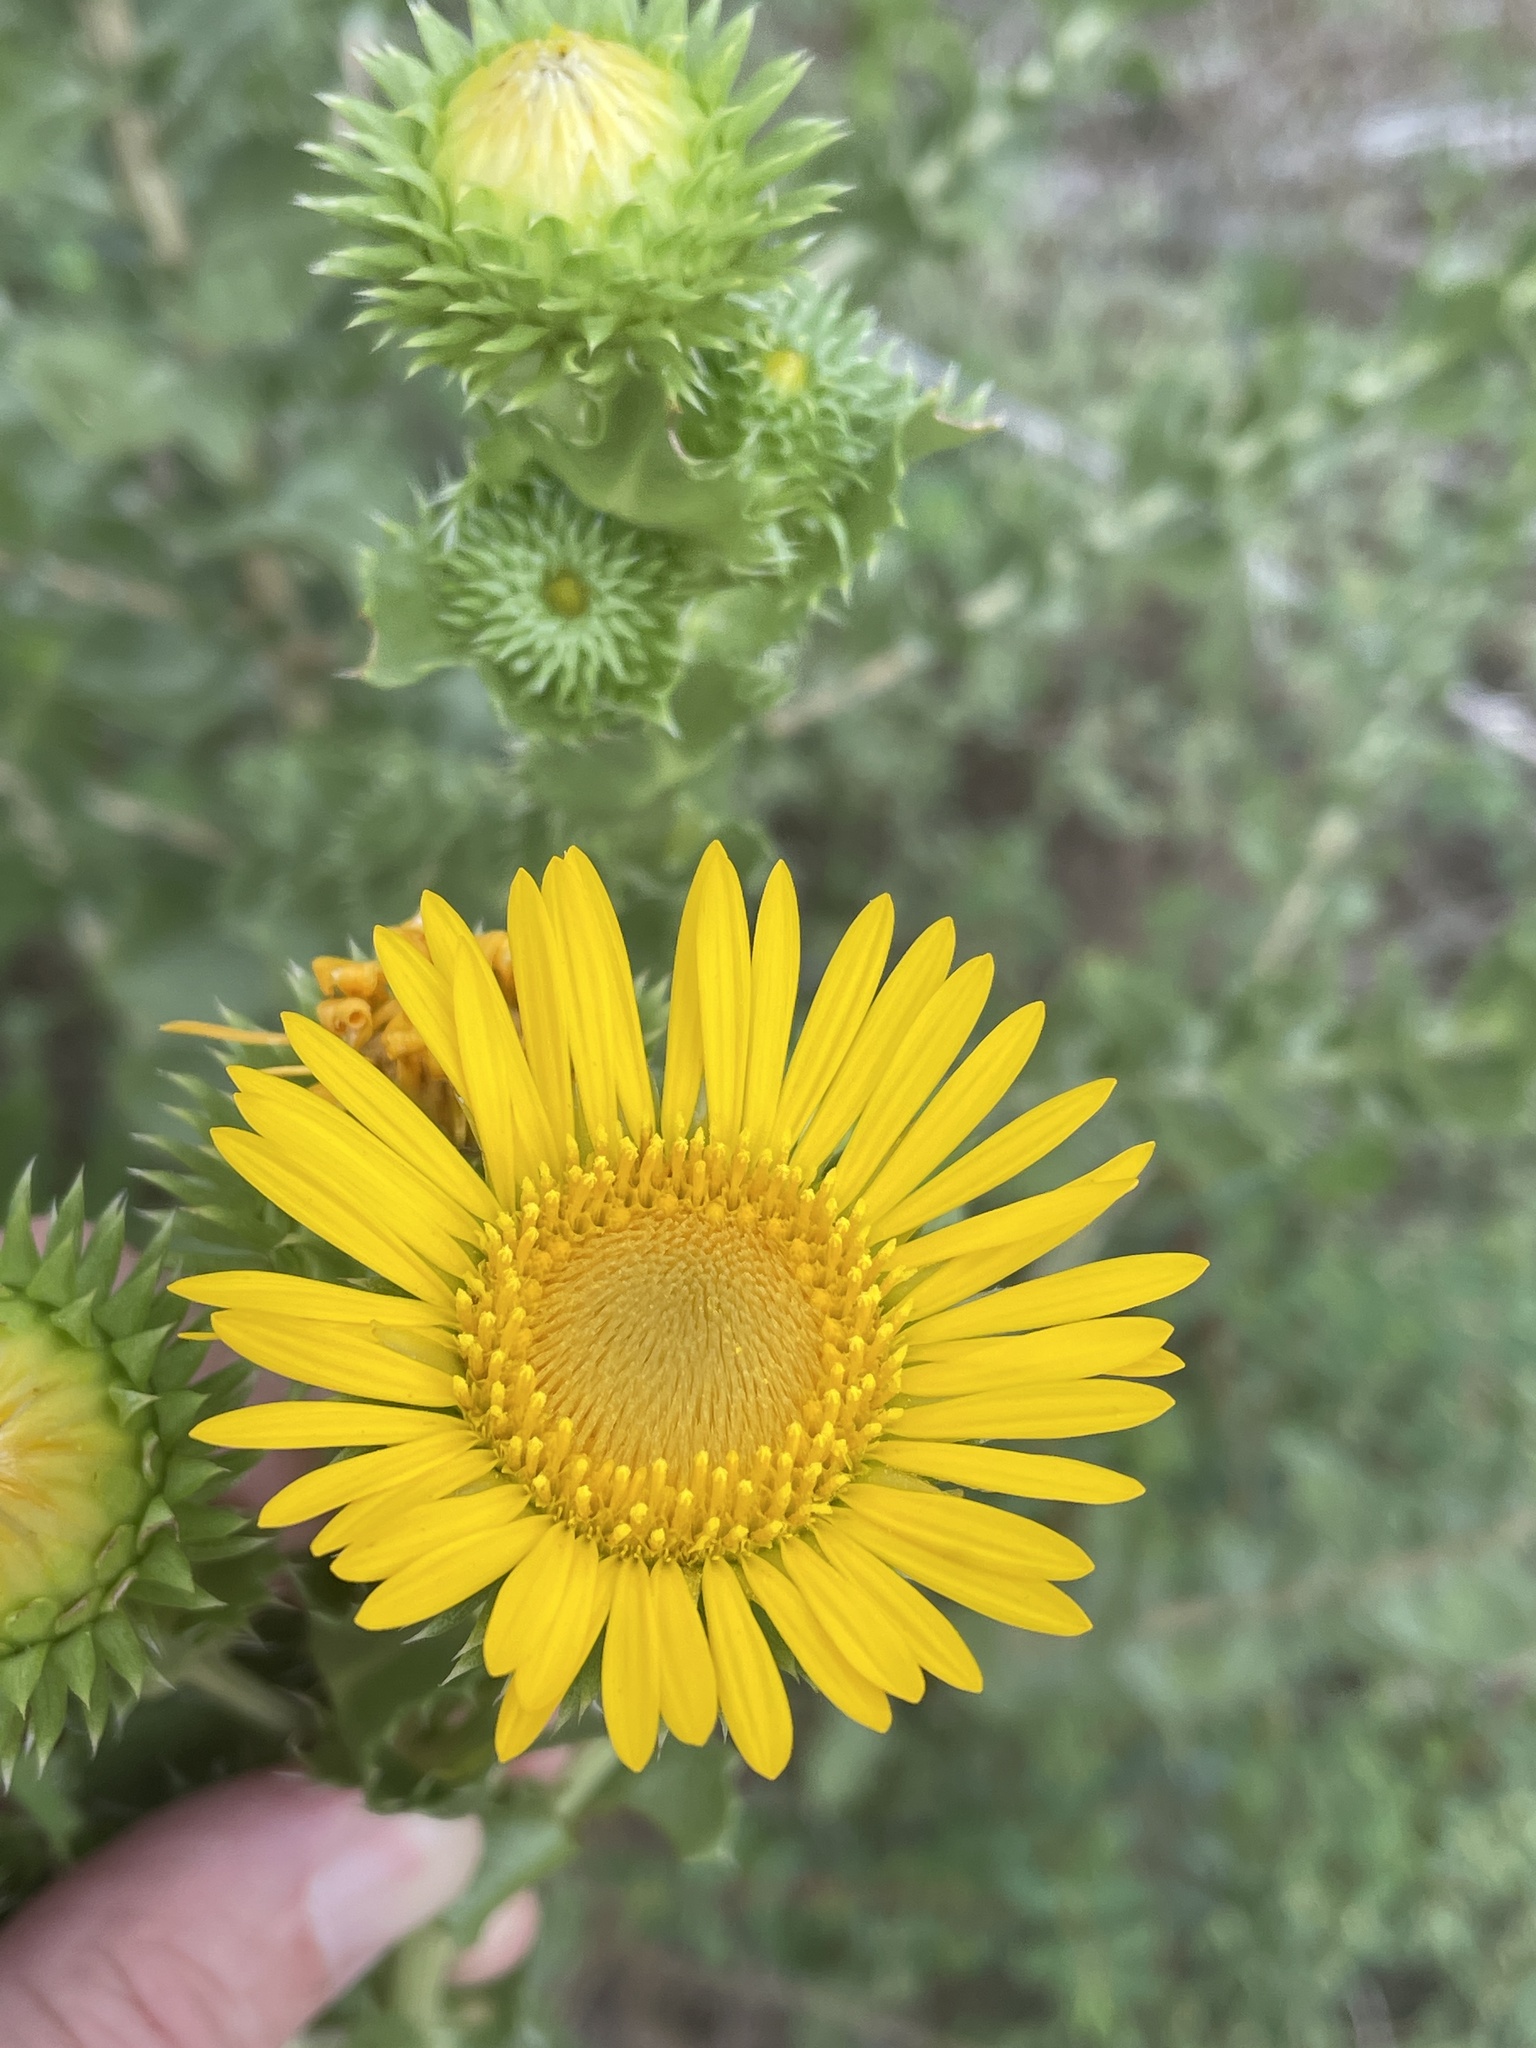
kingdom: Plantae
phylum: Tracheophyta
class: Magnoliopsida
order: Asterales
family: Asteraceae
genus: Grindelia
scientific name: Grindelia ciliata
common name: Goldenweed
